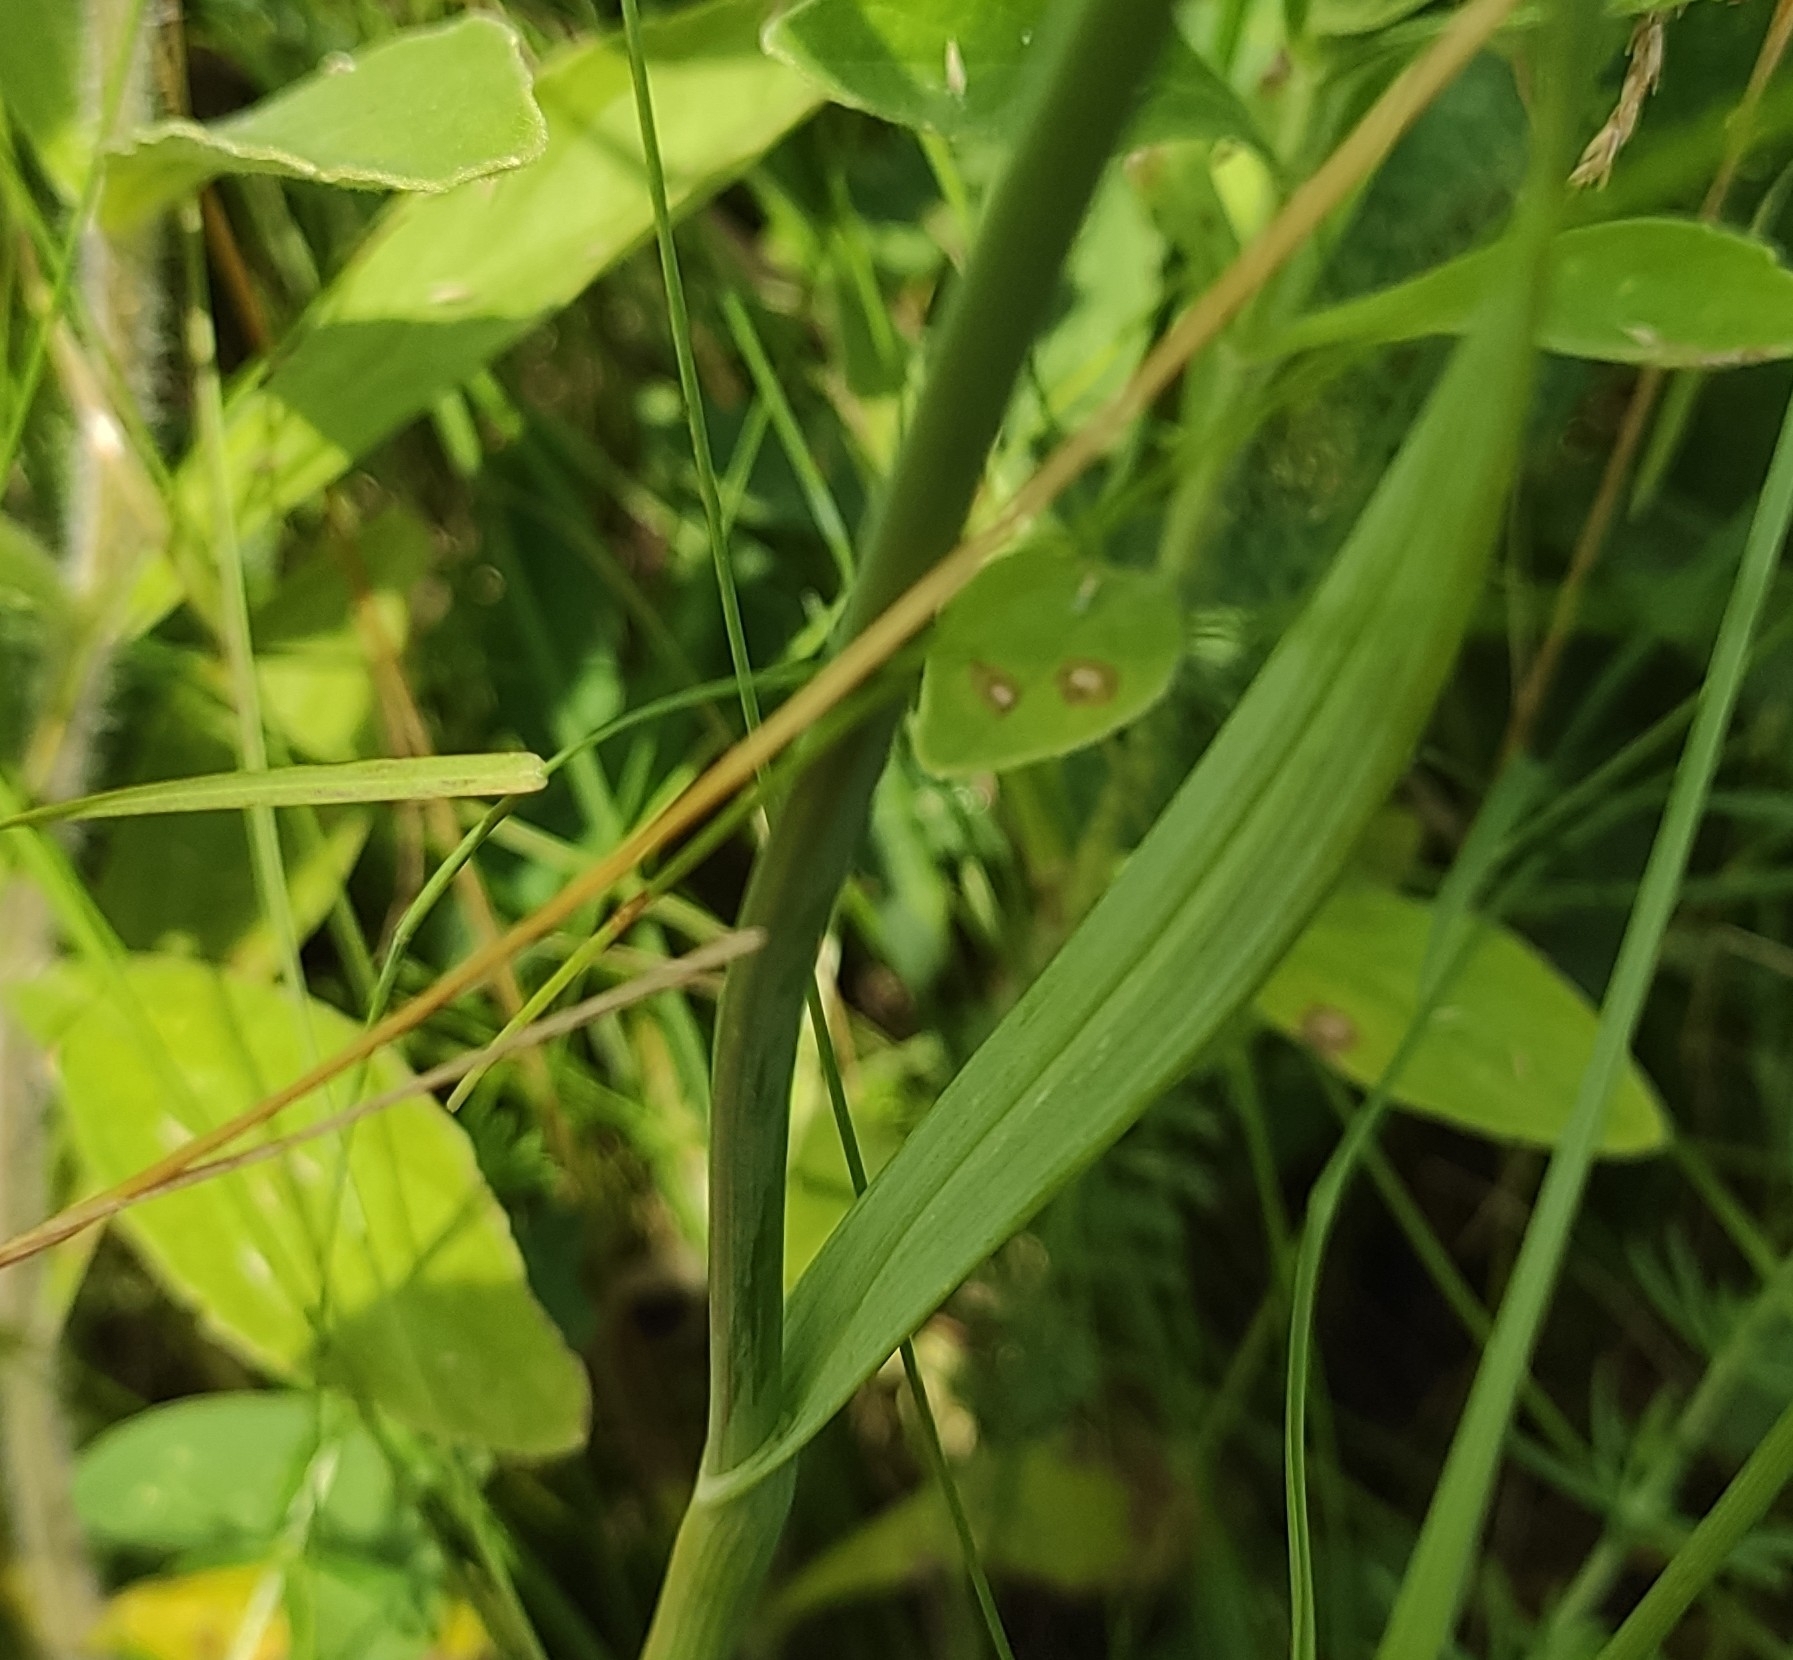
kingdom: Plantae
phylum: Tracheophyta
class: Liliopsida
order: Asparagales
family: Amaryllidaceae
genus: Allium
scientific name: Allium rotundum
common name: Sand leek
